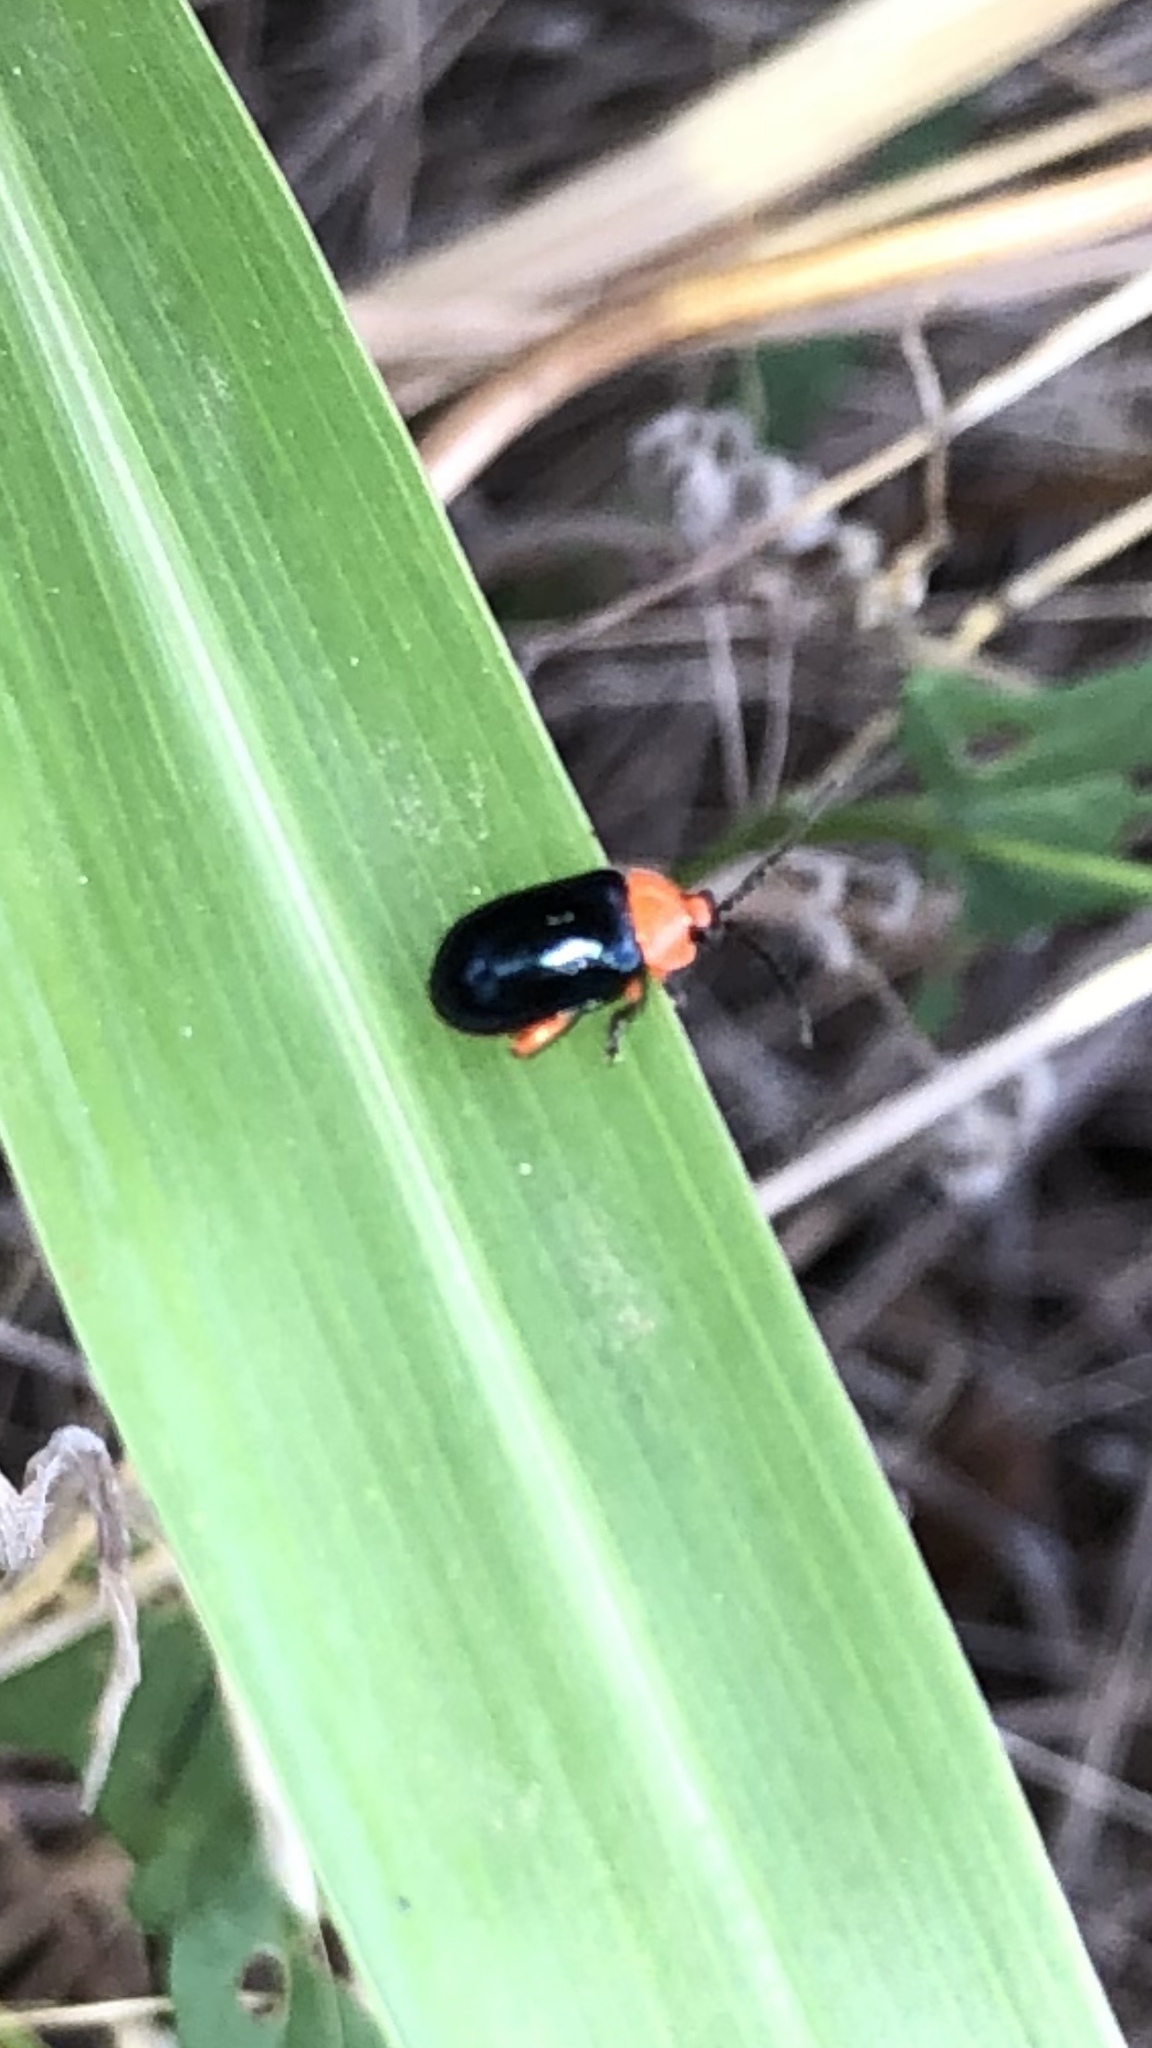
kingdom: Animalia
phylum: Arthropoda
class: Insecta
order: Coleoptera
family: Chrysomelidae
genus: Asphaera
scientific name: Asphaera lustrans
